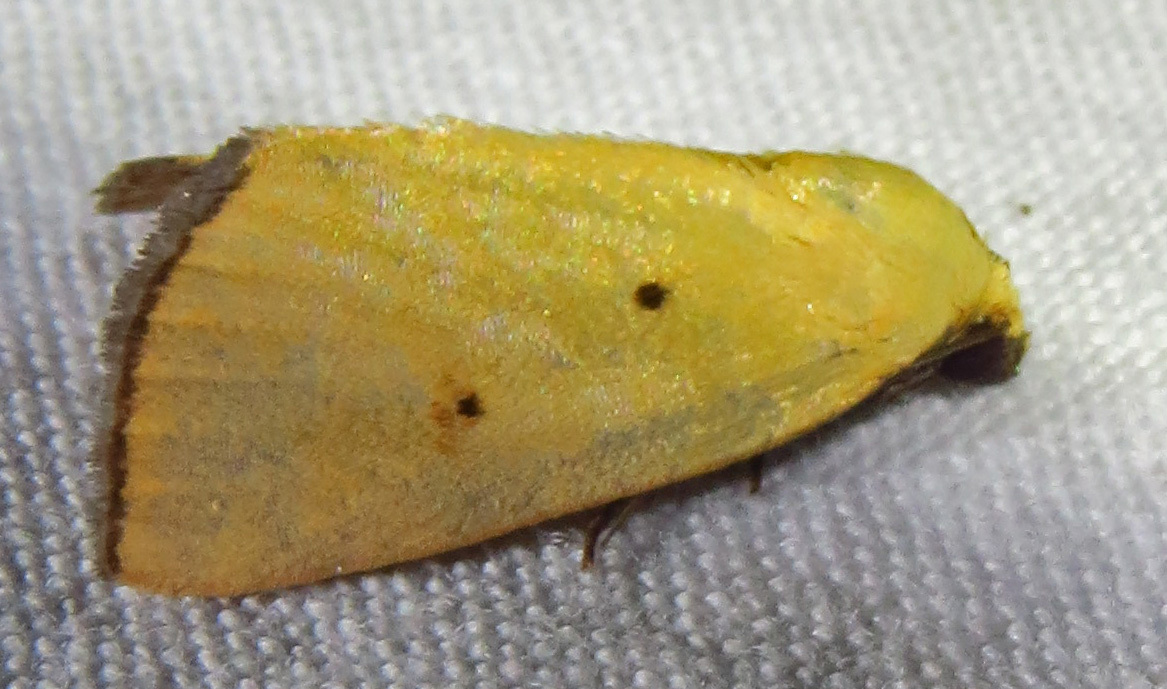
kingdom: Animalia
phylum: Arthropoda
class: Insecta
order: Lepidoptera
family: Noctuidae
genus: Marimatha
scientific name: Marimatha nigrofimbria
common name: Black-bordered lemon moth
